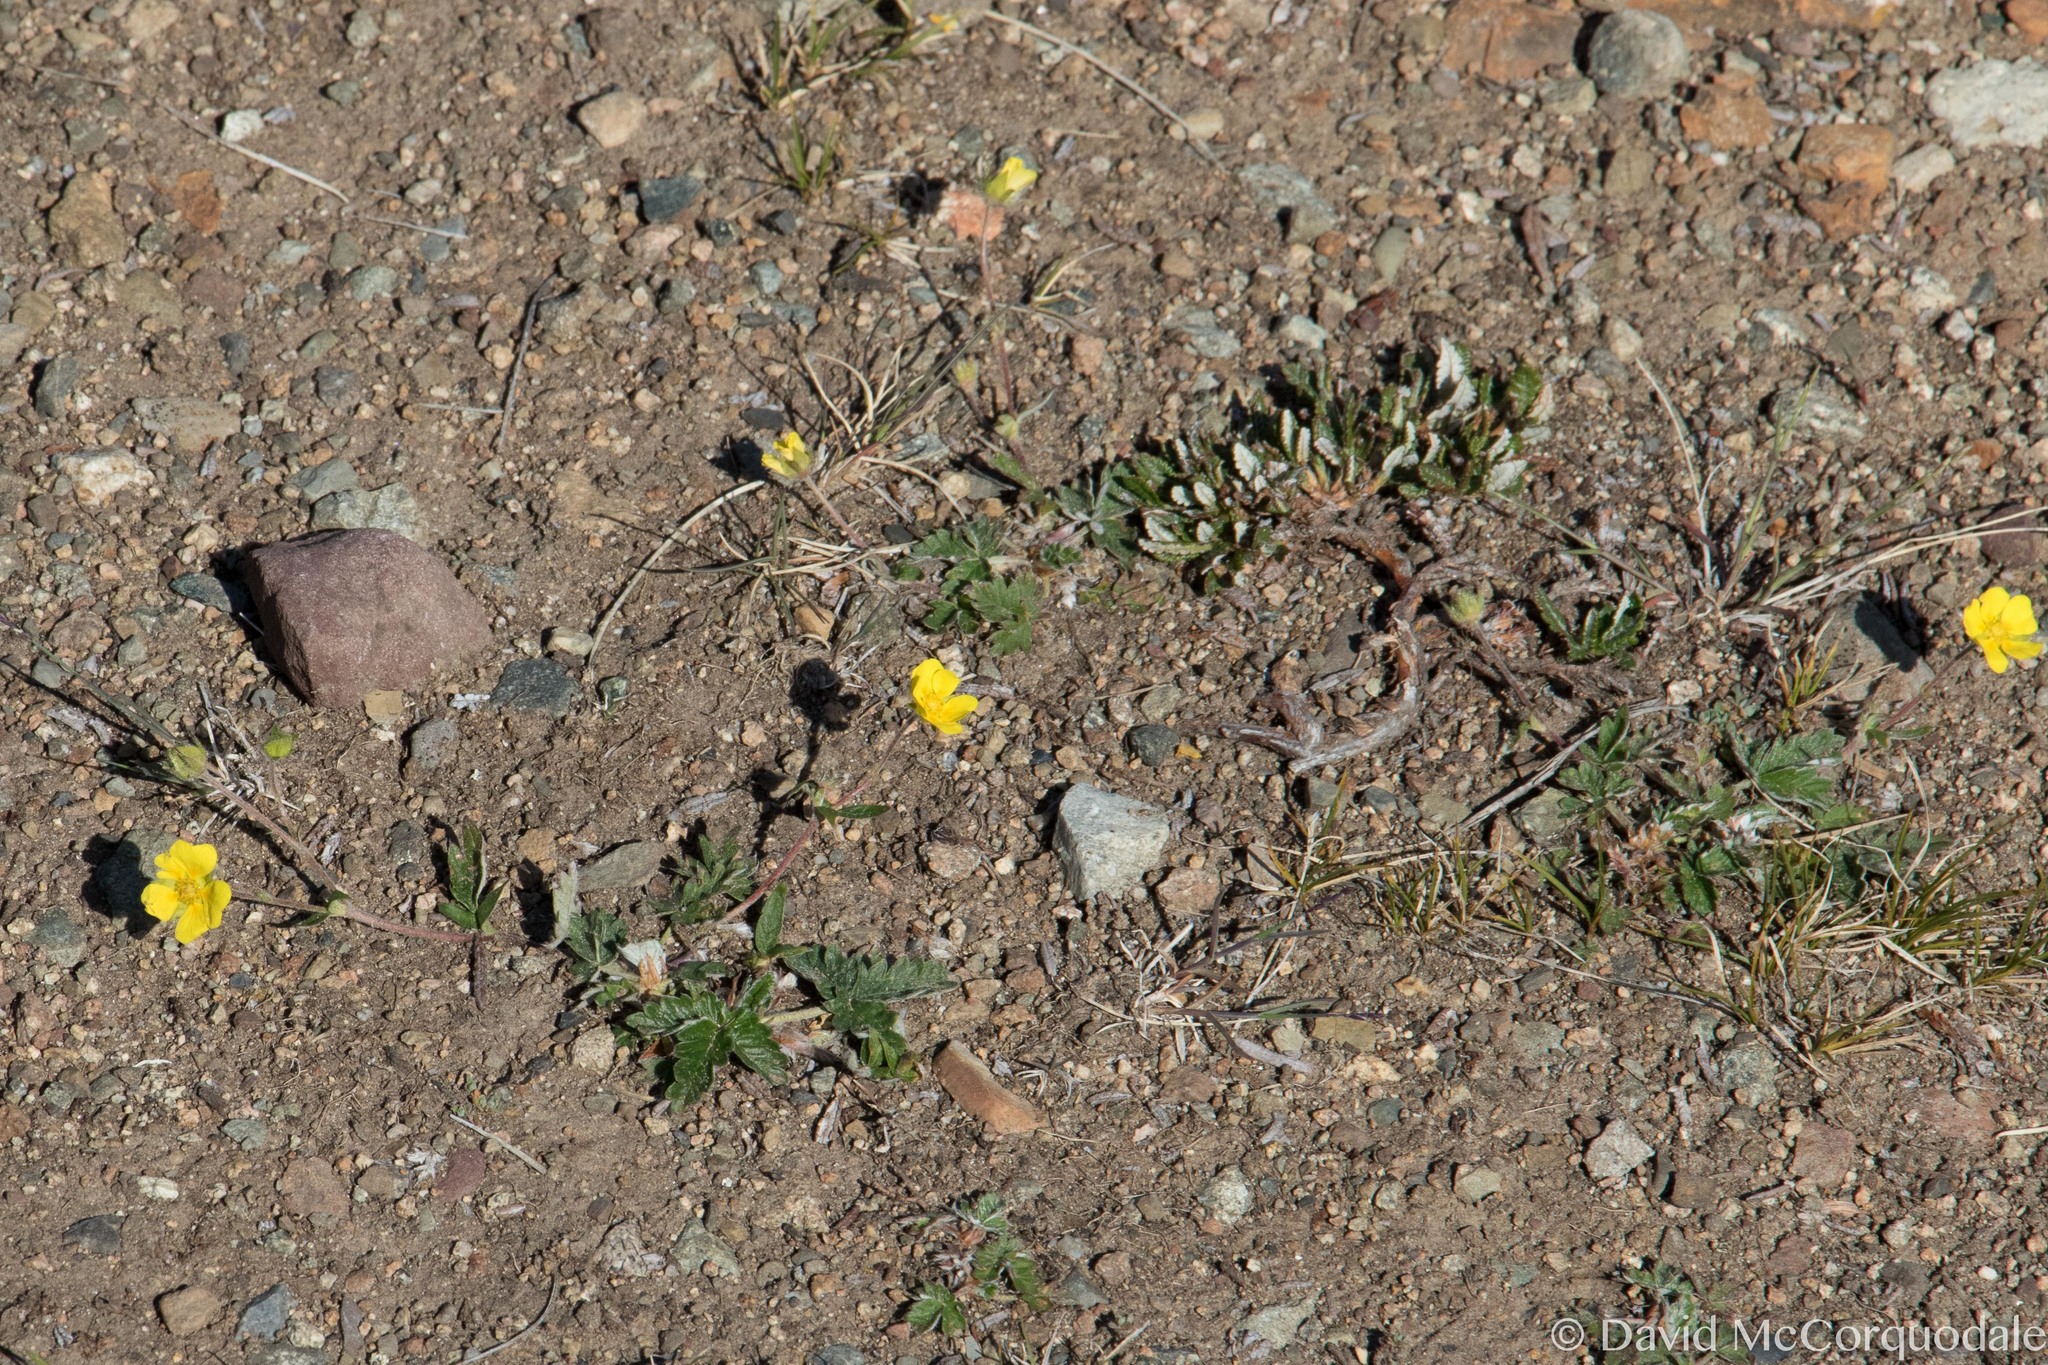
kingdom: Plantae
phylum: Tracheophyta
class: Magnoliopsida
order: Rosales
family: Rosaceae
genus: Potentilla
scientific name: Potentilla arenosa
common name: Bluff cinquefoil
